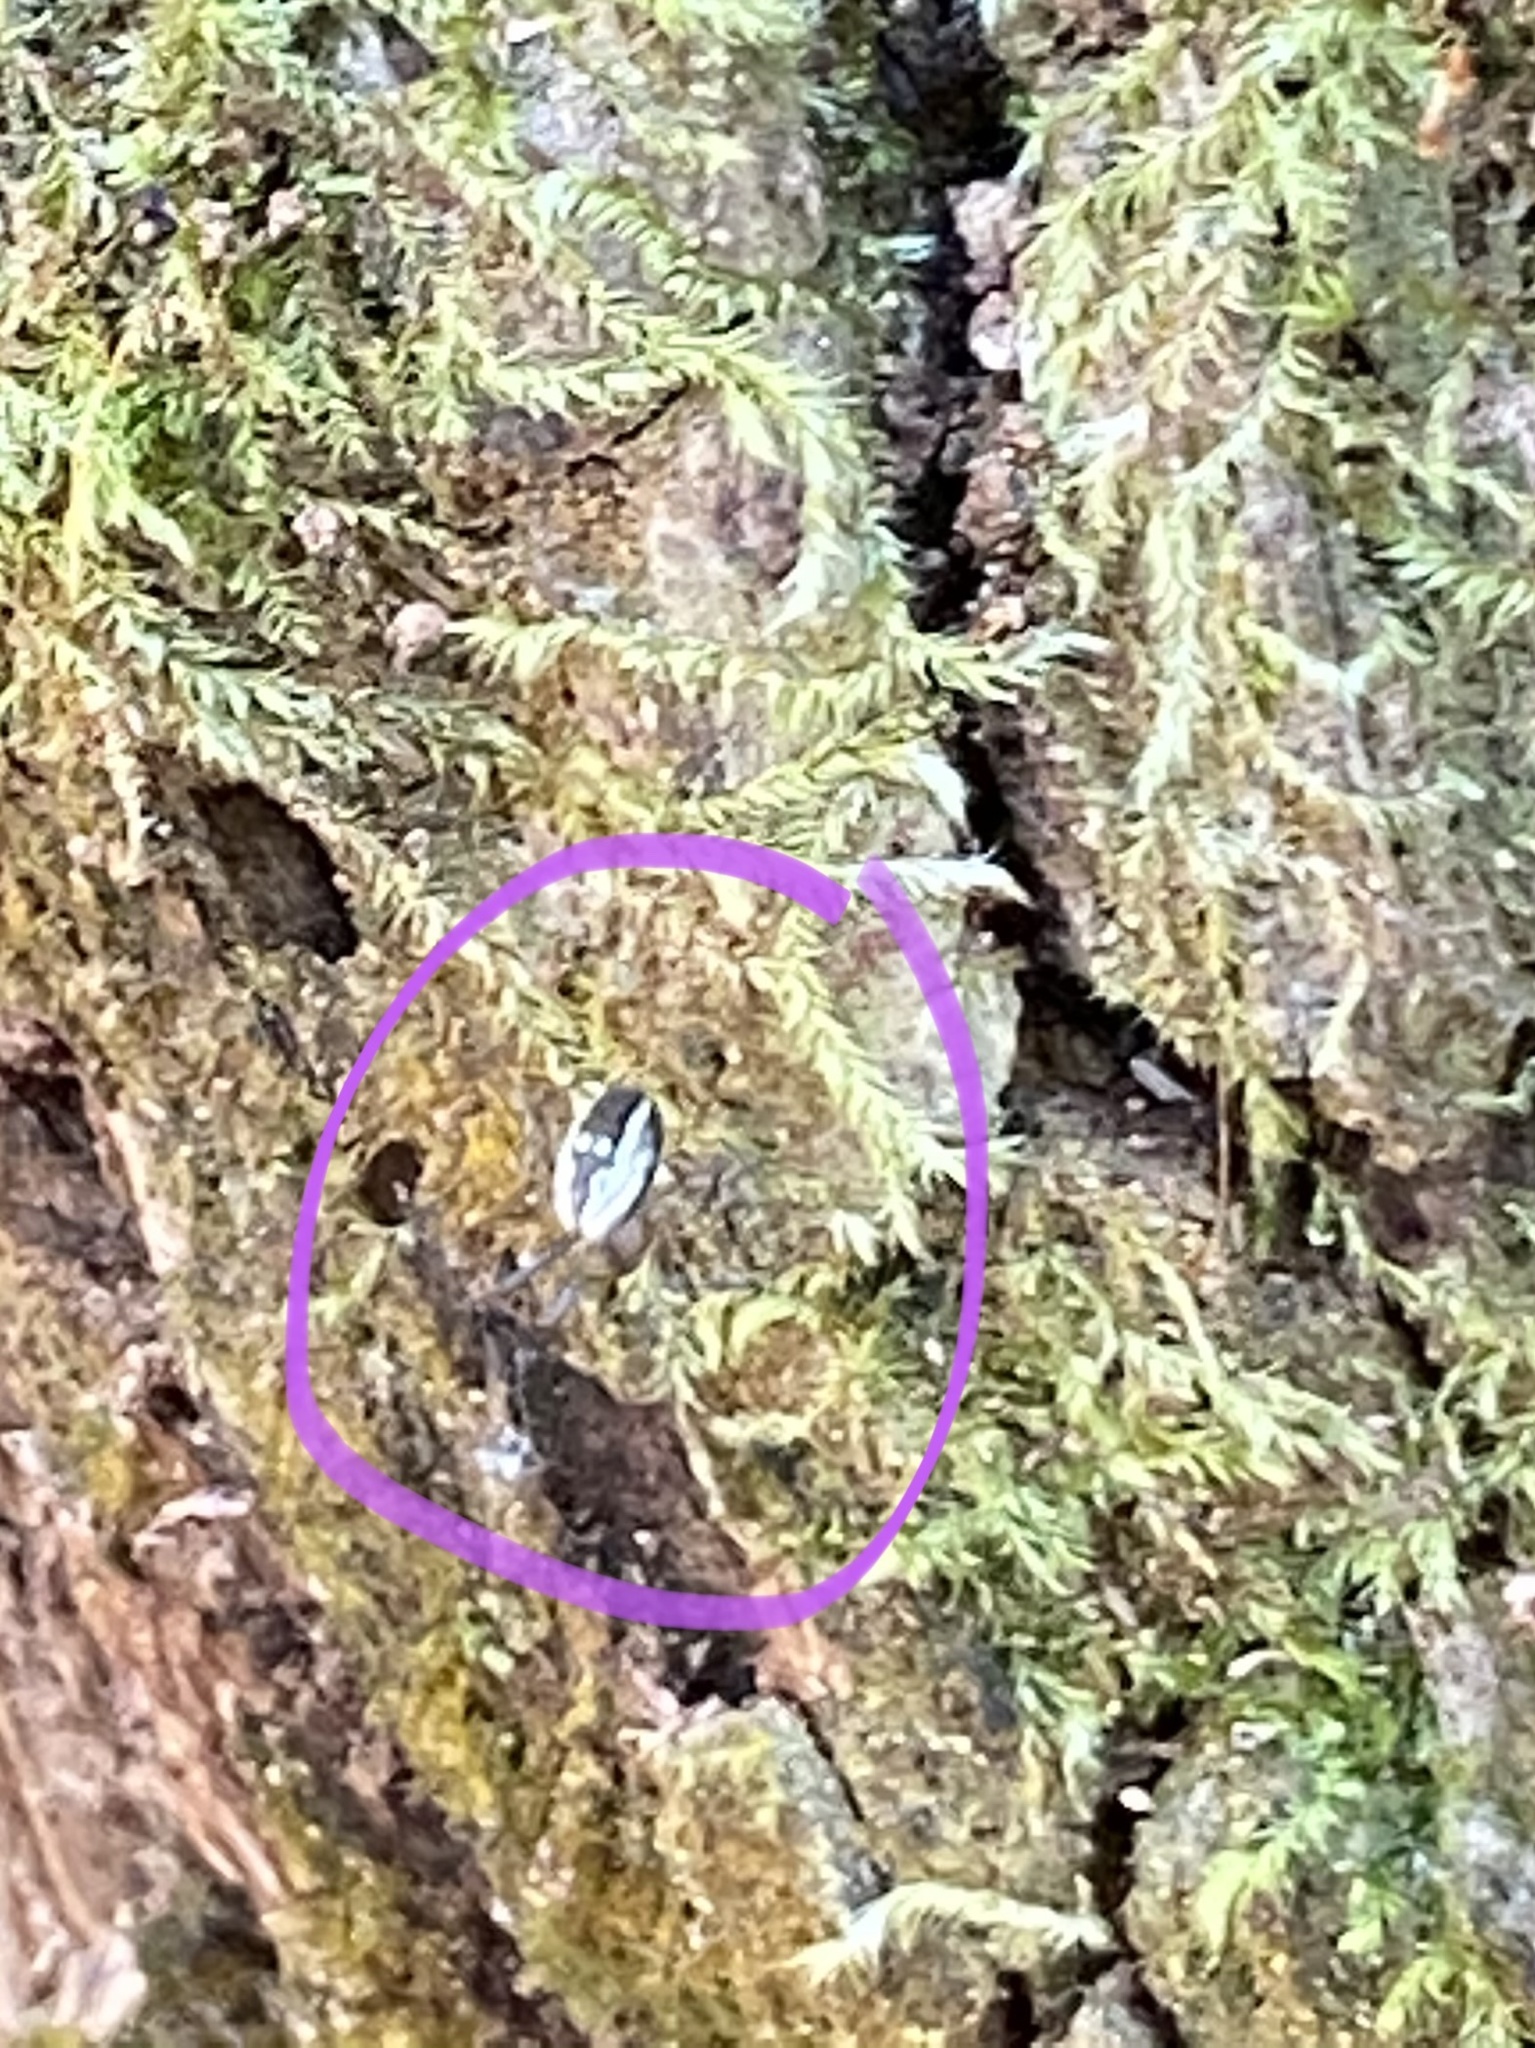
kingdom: Animalia
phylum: Arthropoda
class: Arachnida
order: Araneae
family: Araneidae
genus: Mangora
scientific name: Mangora placida
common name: Tuft-legged orbweaver
